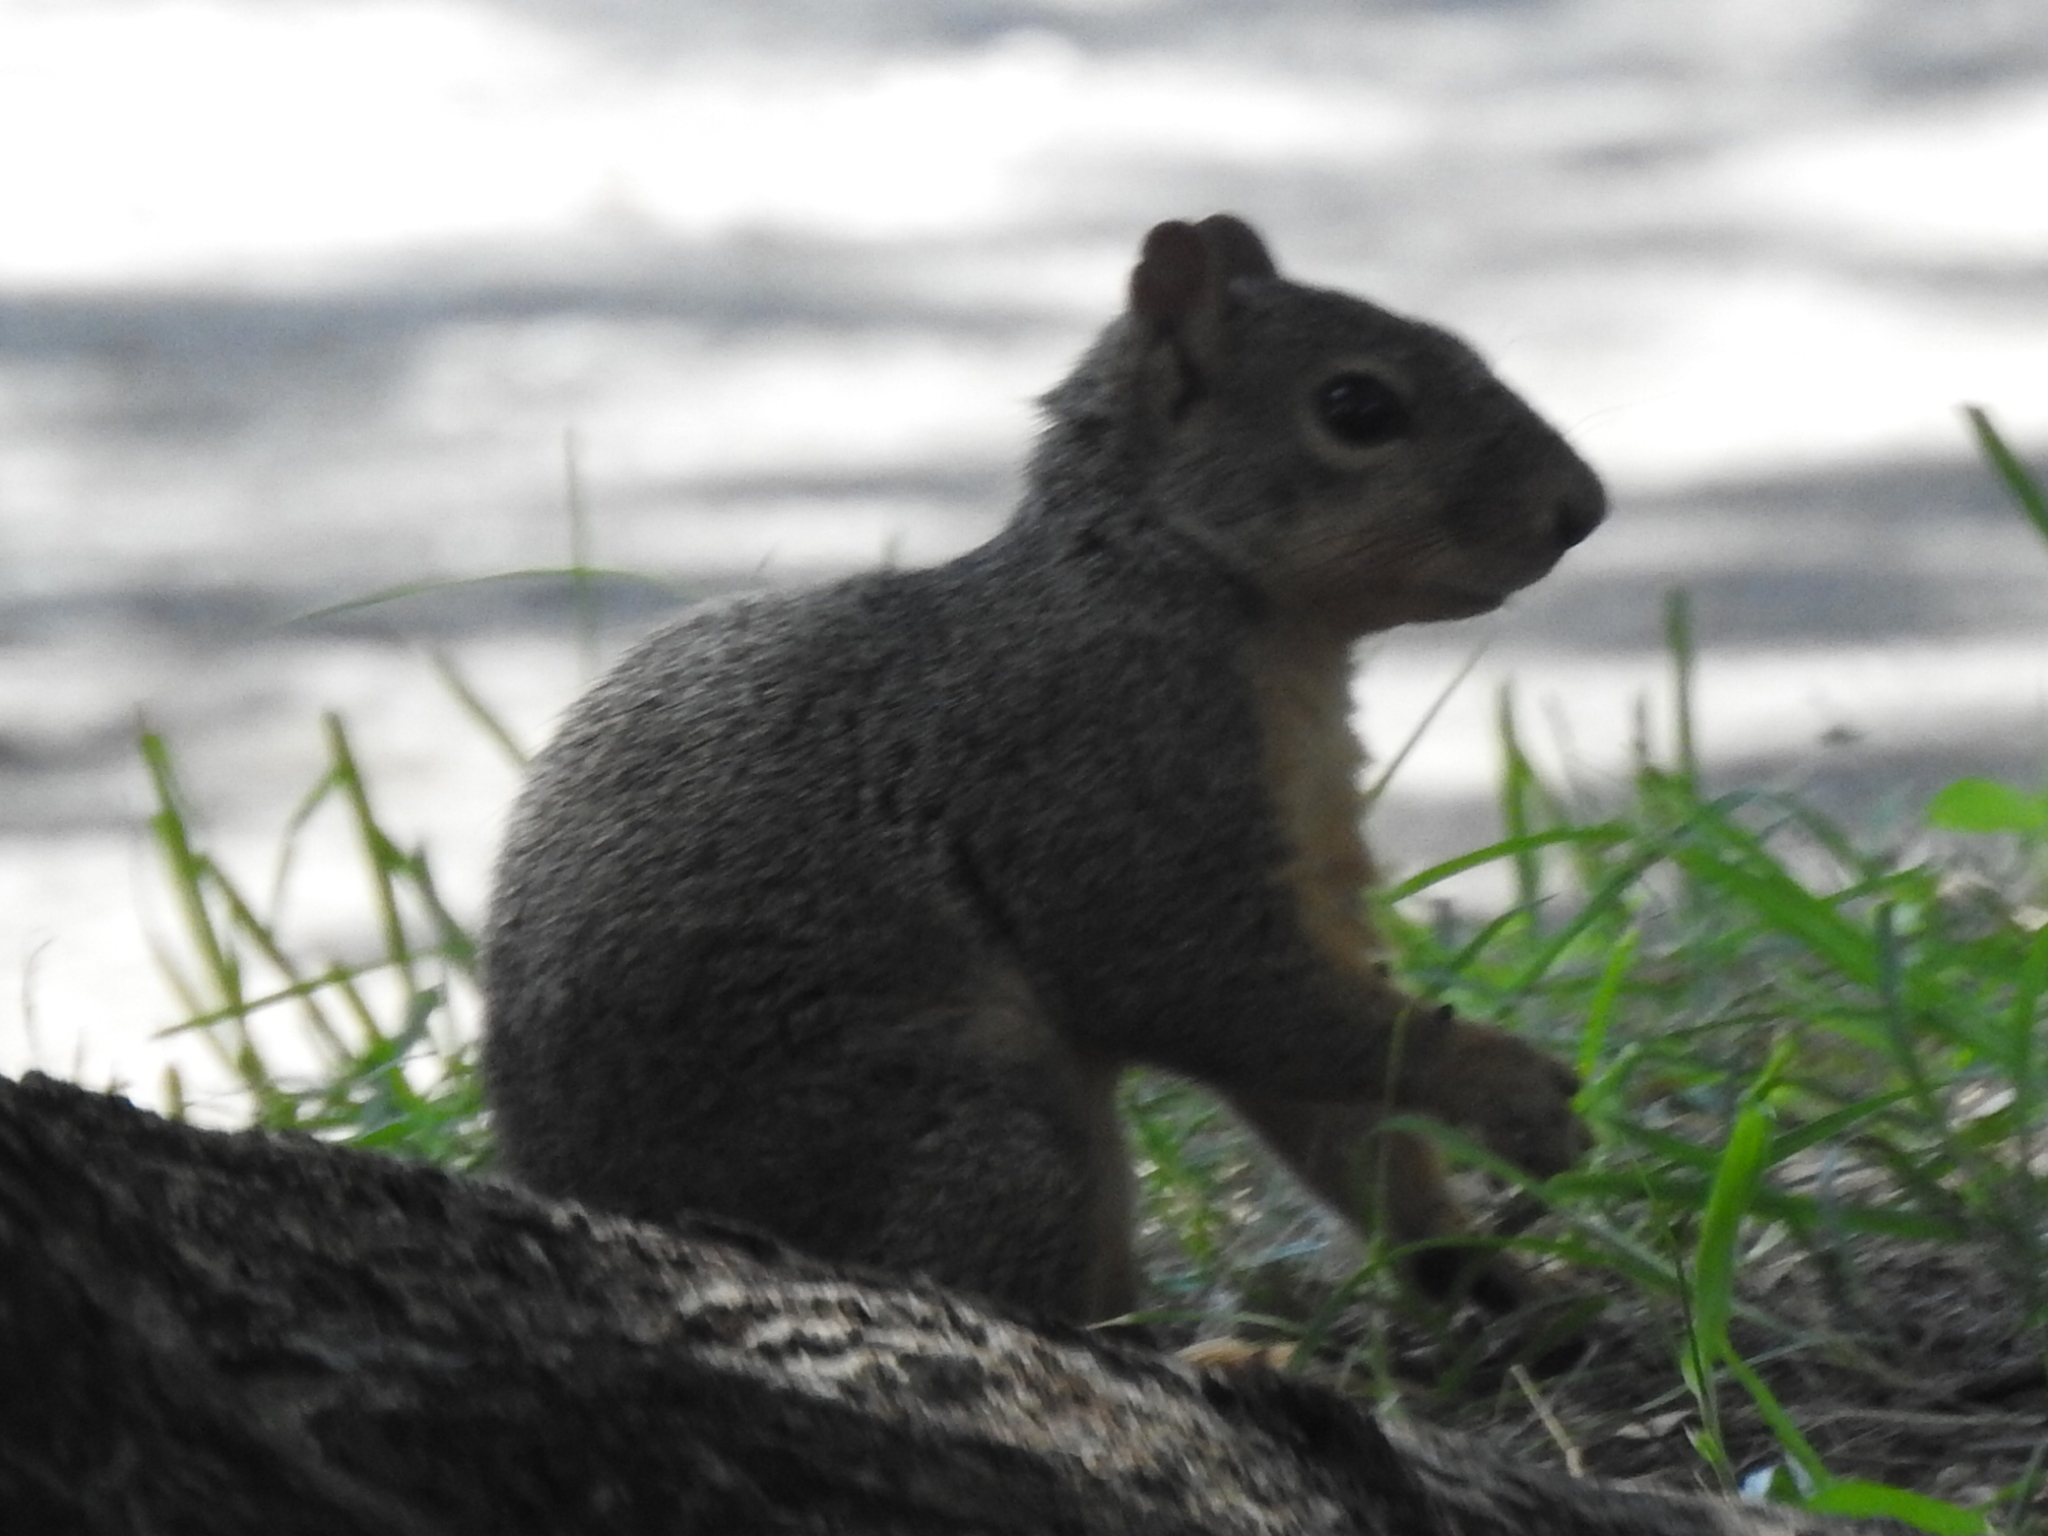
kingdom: Animalia
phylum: Chordata
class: Mammalia
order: Rodentia
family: Sciuridae
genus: Sciurus
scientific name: Sciurus niger
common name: Fox squirrel
